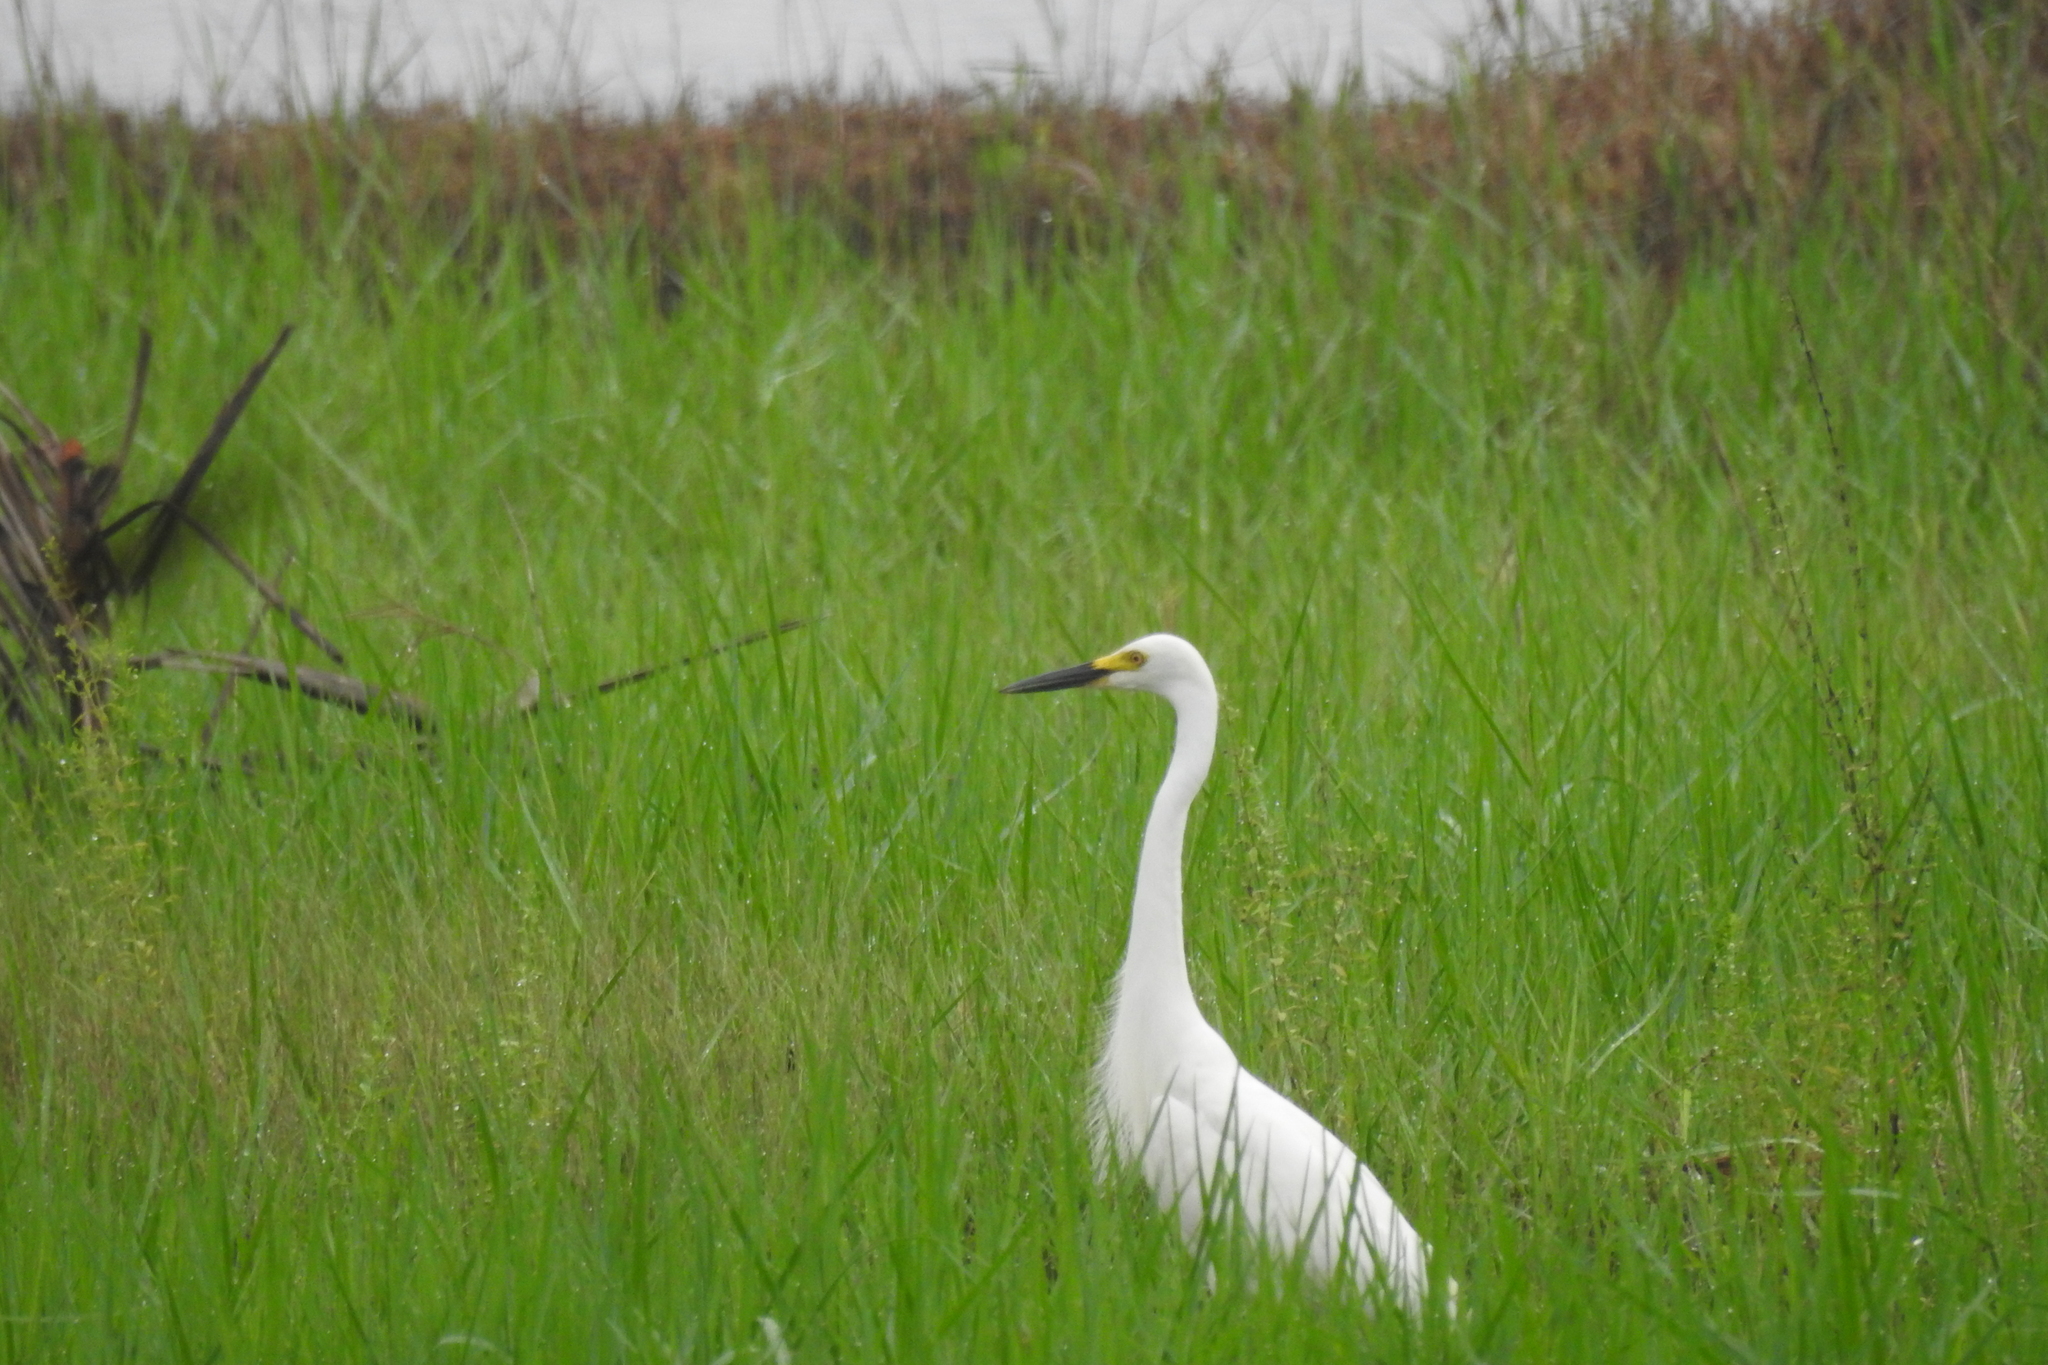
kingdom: Animalia
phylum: Chordata
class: Aves
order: Pelecaniformes
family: Ardeidae
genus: Egretta
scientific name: Egretta intermedia
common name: Intermediate egret
